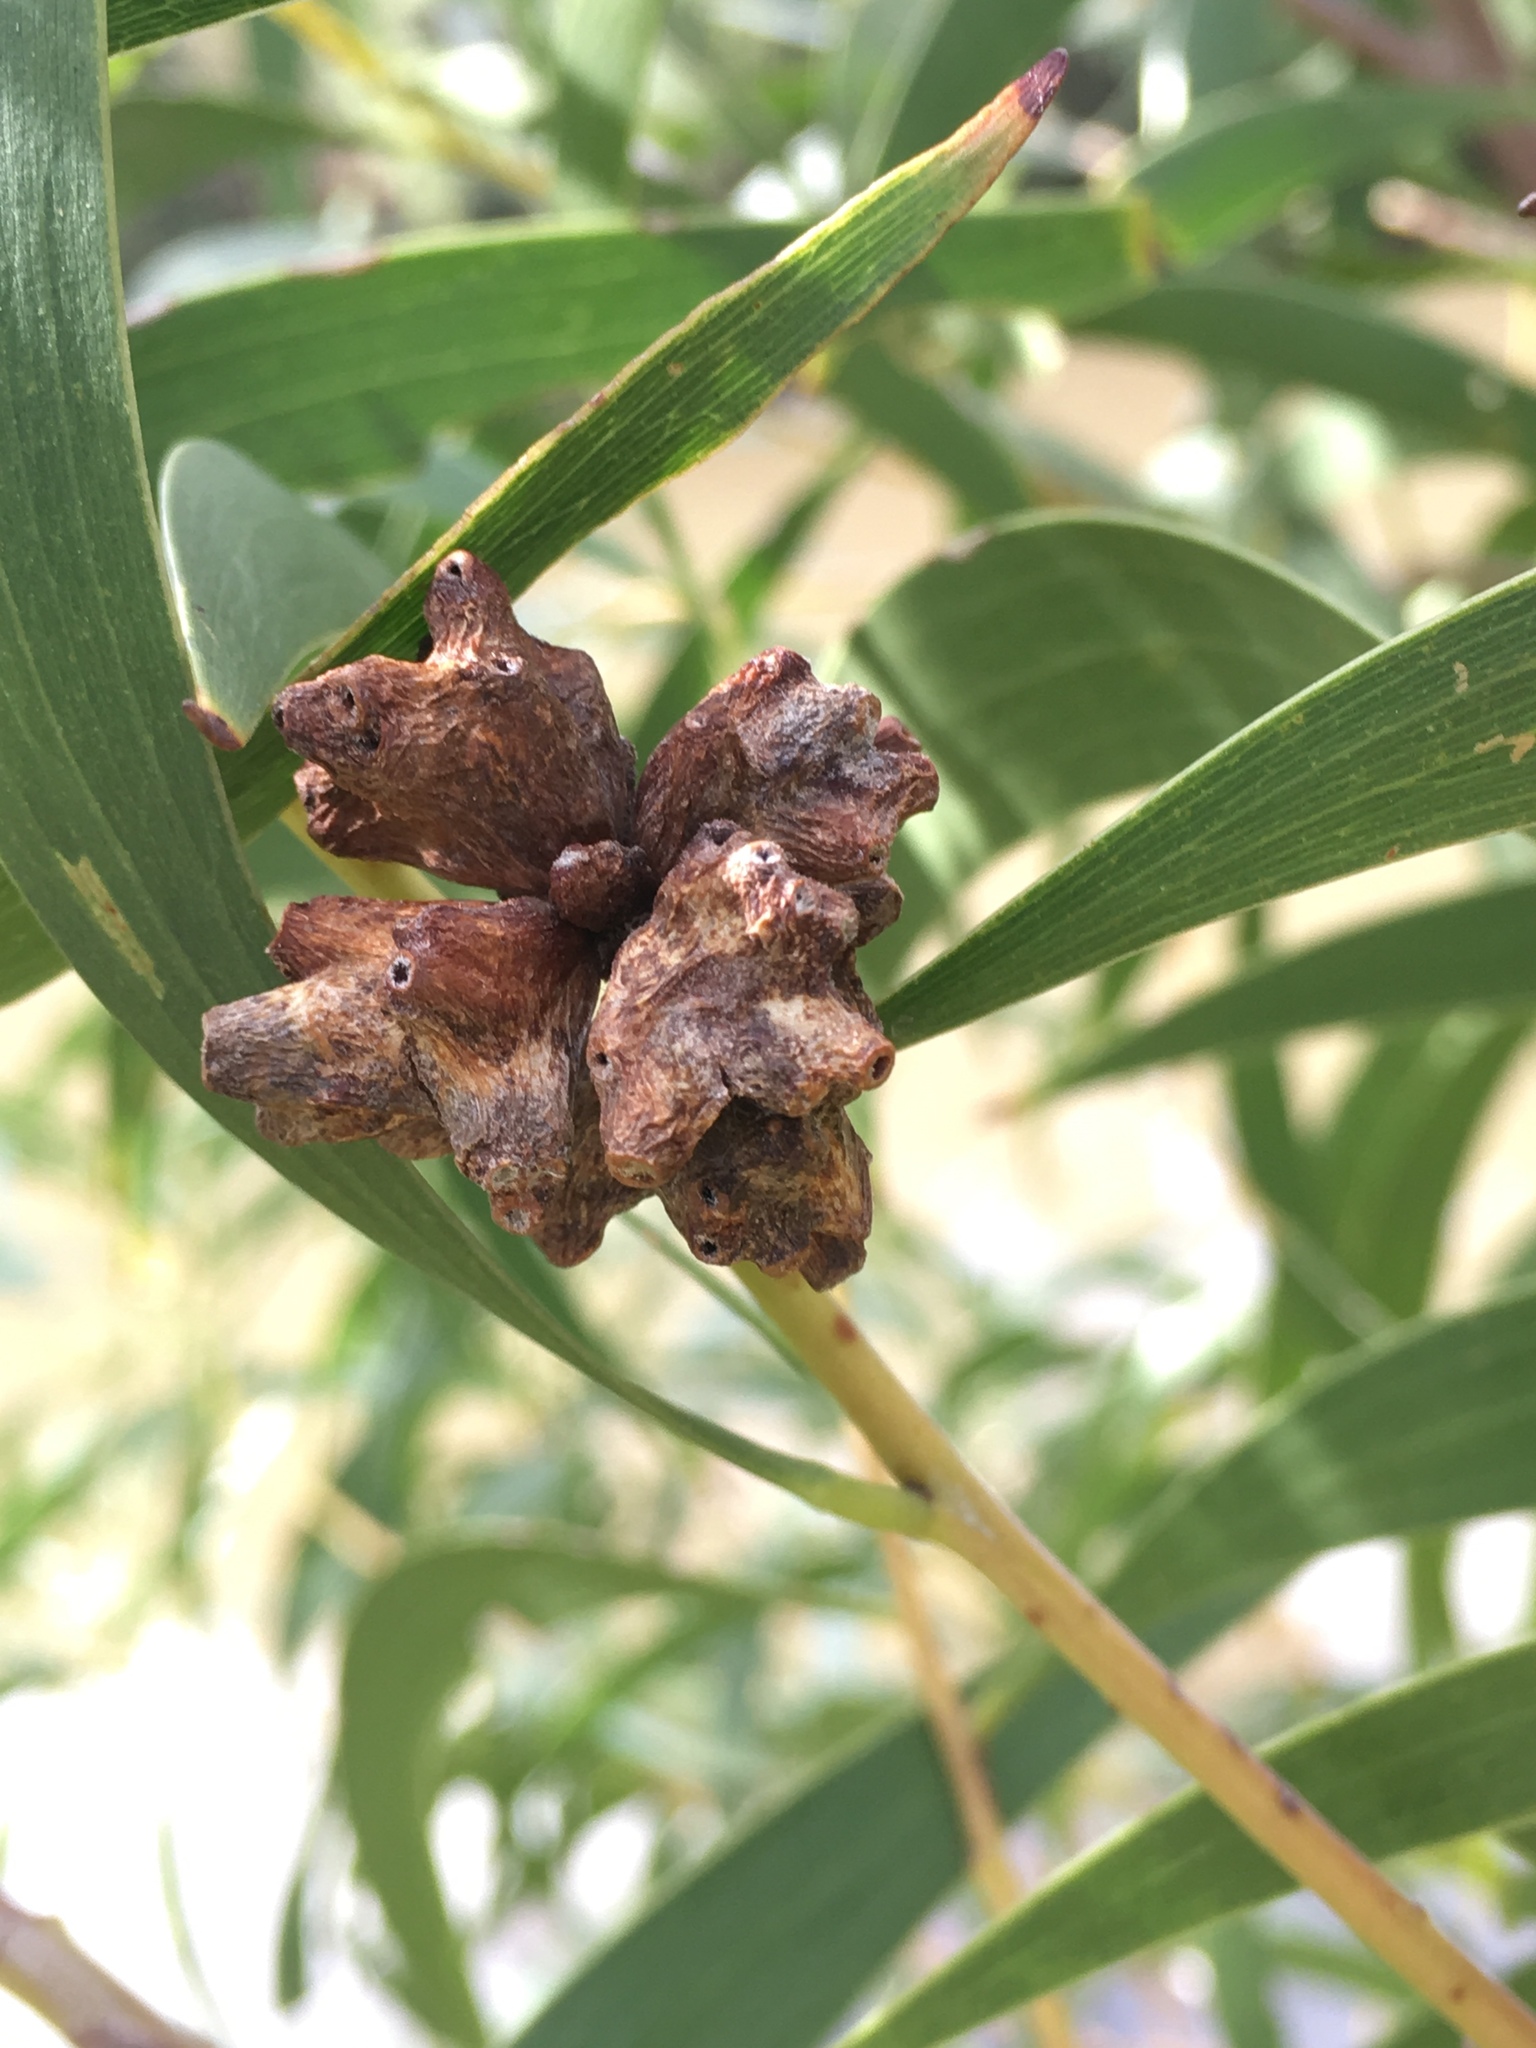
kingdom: Plantae
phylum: Tracheophyta
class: Magnoliopsida
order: Fabales
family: Fabaceae
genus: Acacia
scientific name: Acacia longifolia
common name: Sydney golden wattle
